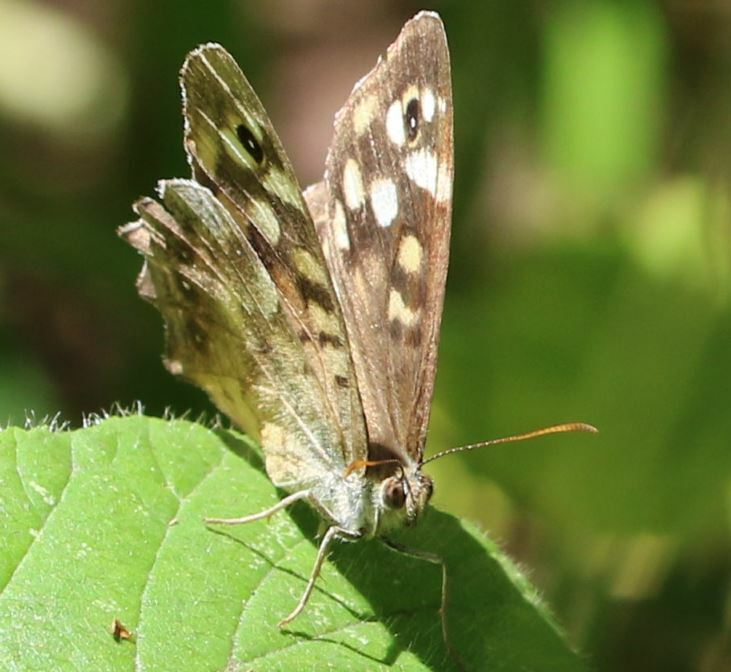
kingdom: Animalia
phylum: Arthropoda
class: Insecta
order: Lepidoptera
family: Nymphalidae
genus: Pararge
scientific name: Pararge aegeria
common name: Speckled wood
